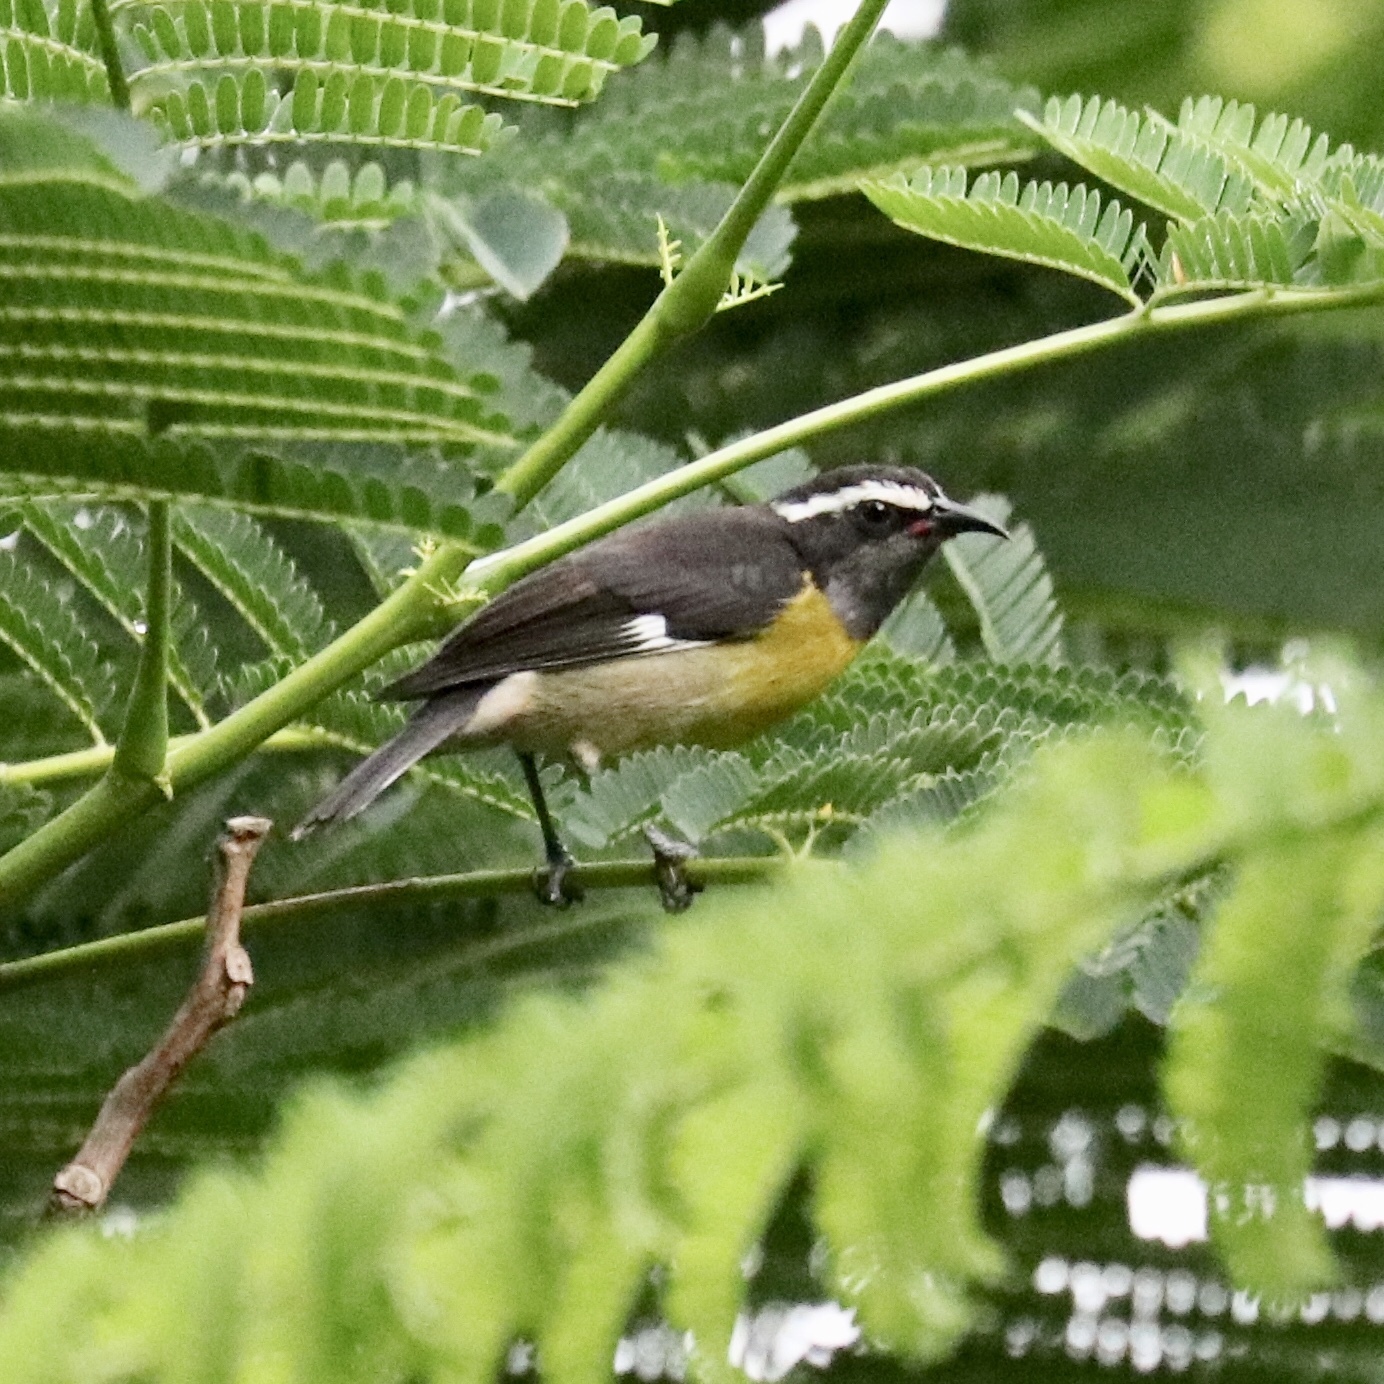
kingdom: Animalia
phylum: Chordata
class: Aves
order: Passeriformes
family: Thraupidae
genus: Coereba
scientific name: Coereba flaveola
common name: Bananaquit
